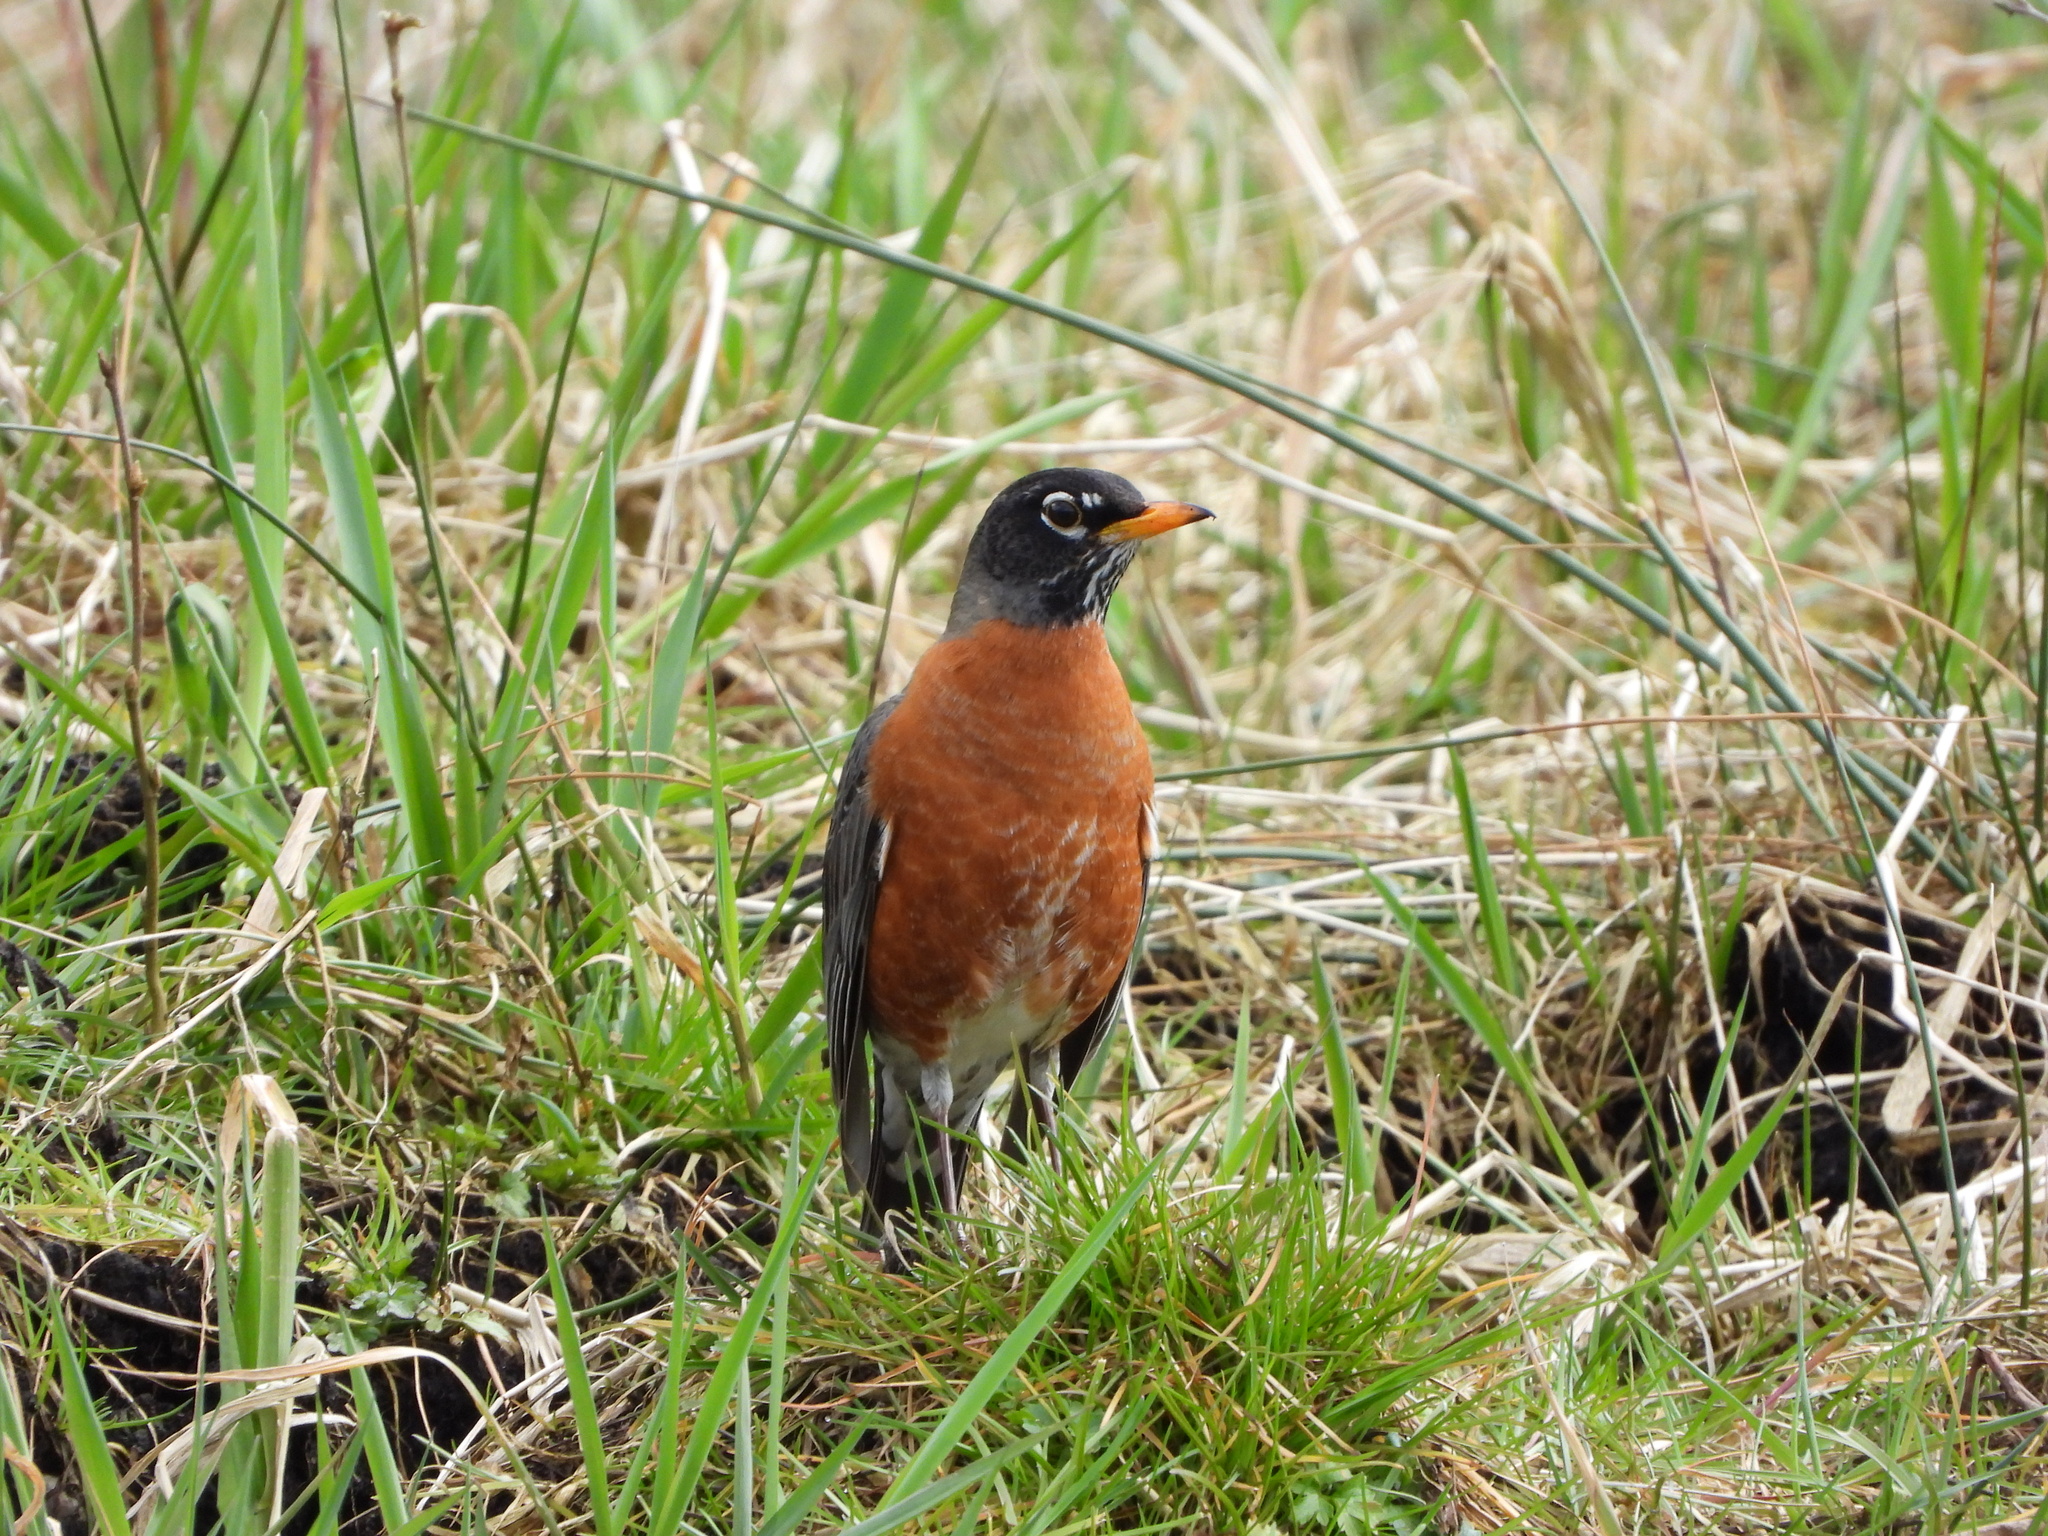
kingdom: Animalia
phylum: Chordata
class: Aves
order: Passeriformes
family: Turdidae
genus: Turdus
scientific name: Turdus migratorius
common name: American robin
